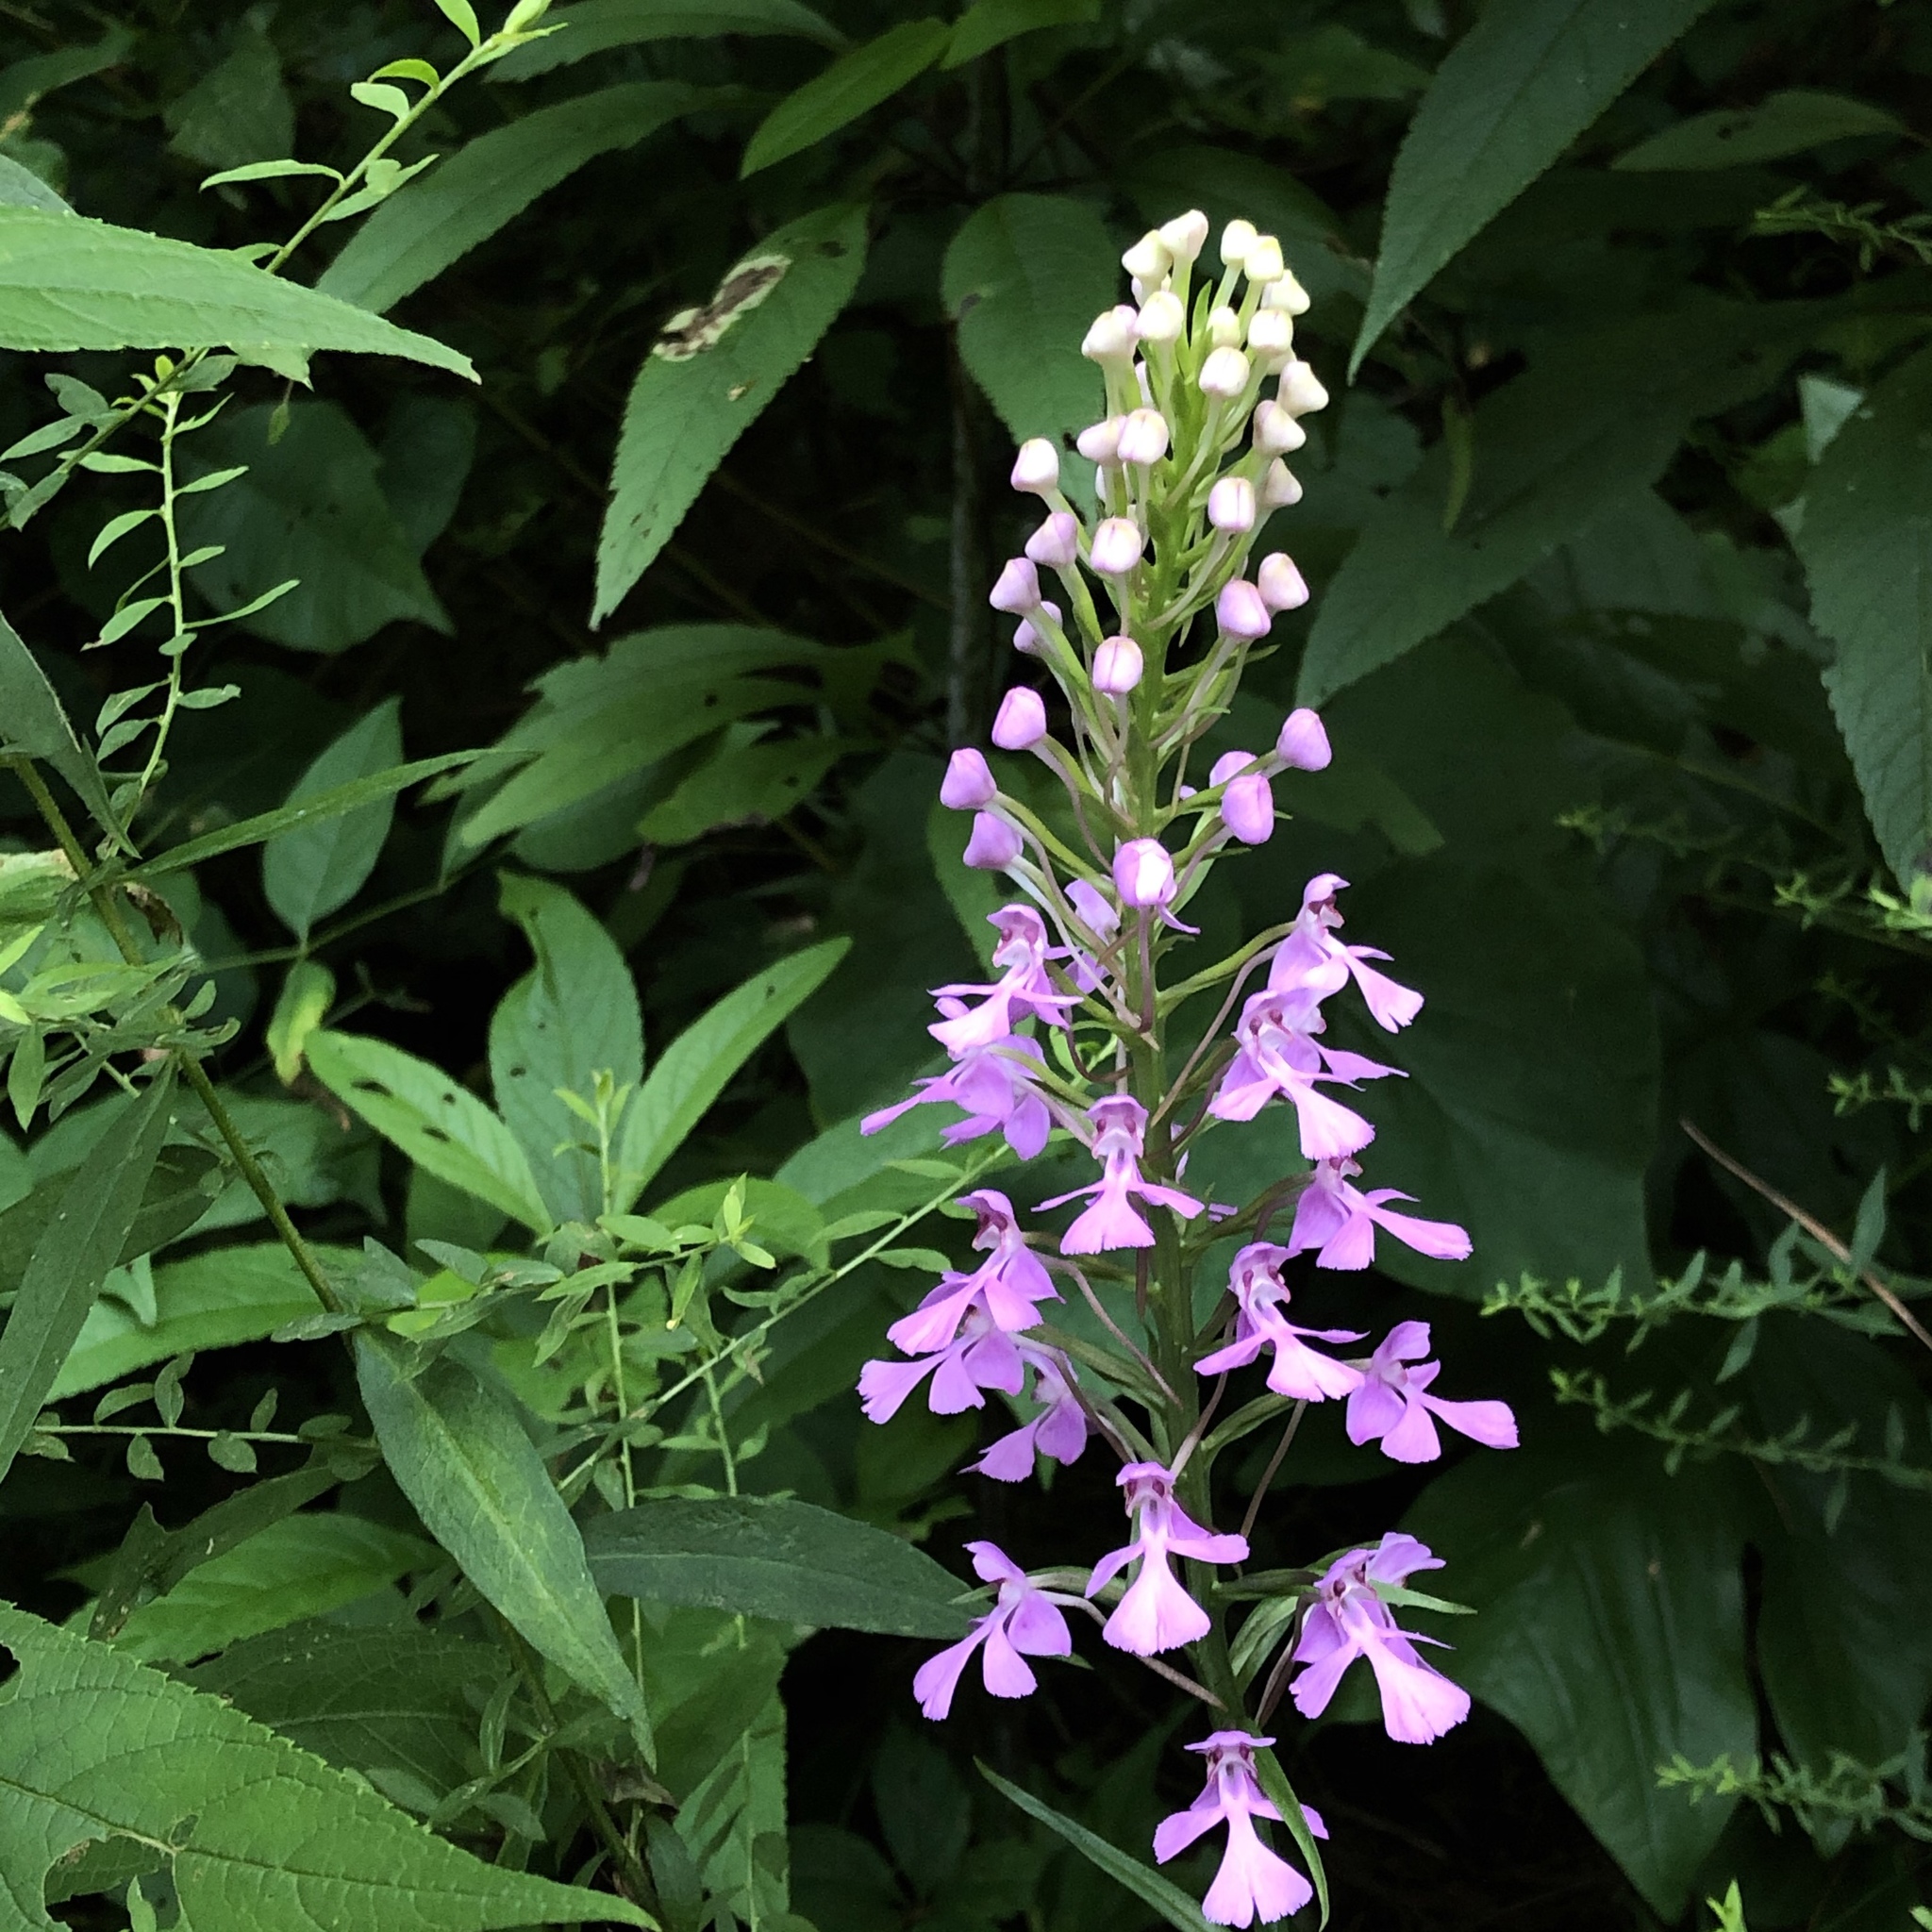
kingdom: Plantae
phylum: Tracheophyta
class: Liliopsida
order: Asparagales
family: Orchidaceae
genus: Platanthera
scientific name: Platanthera peramoena
